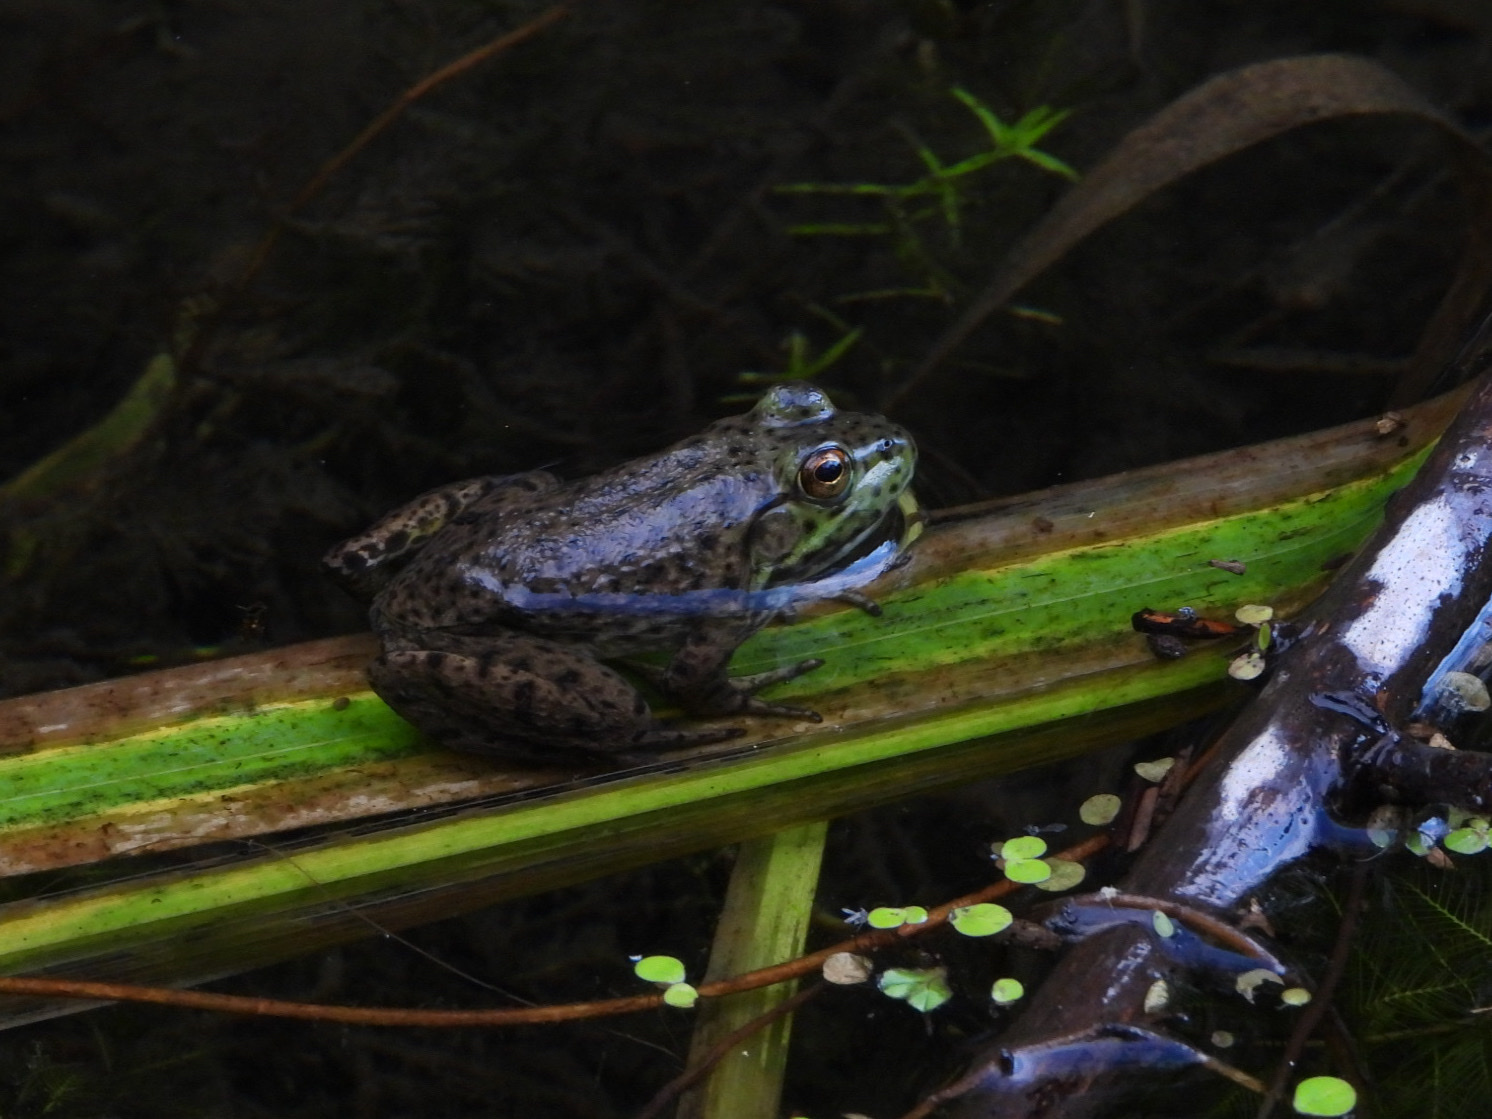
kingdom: Animalia
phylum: Chordata
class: Amphibia
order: Anura
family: Ranidae
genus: Lithobates
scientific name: Lithobates catesbeianus
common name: American bullfrog
